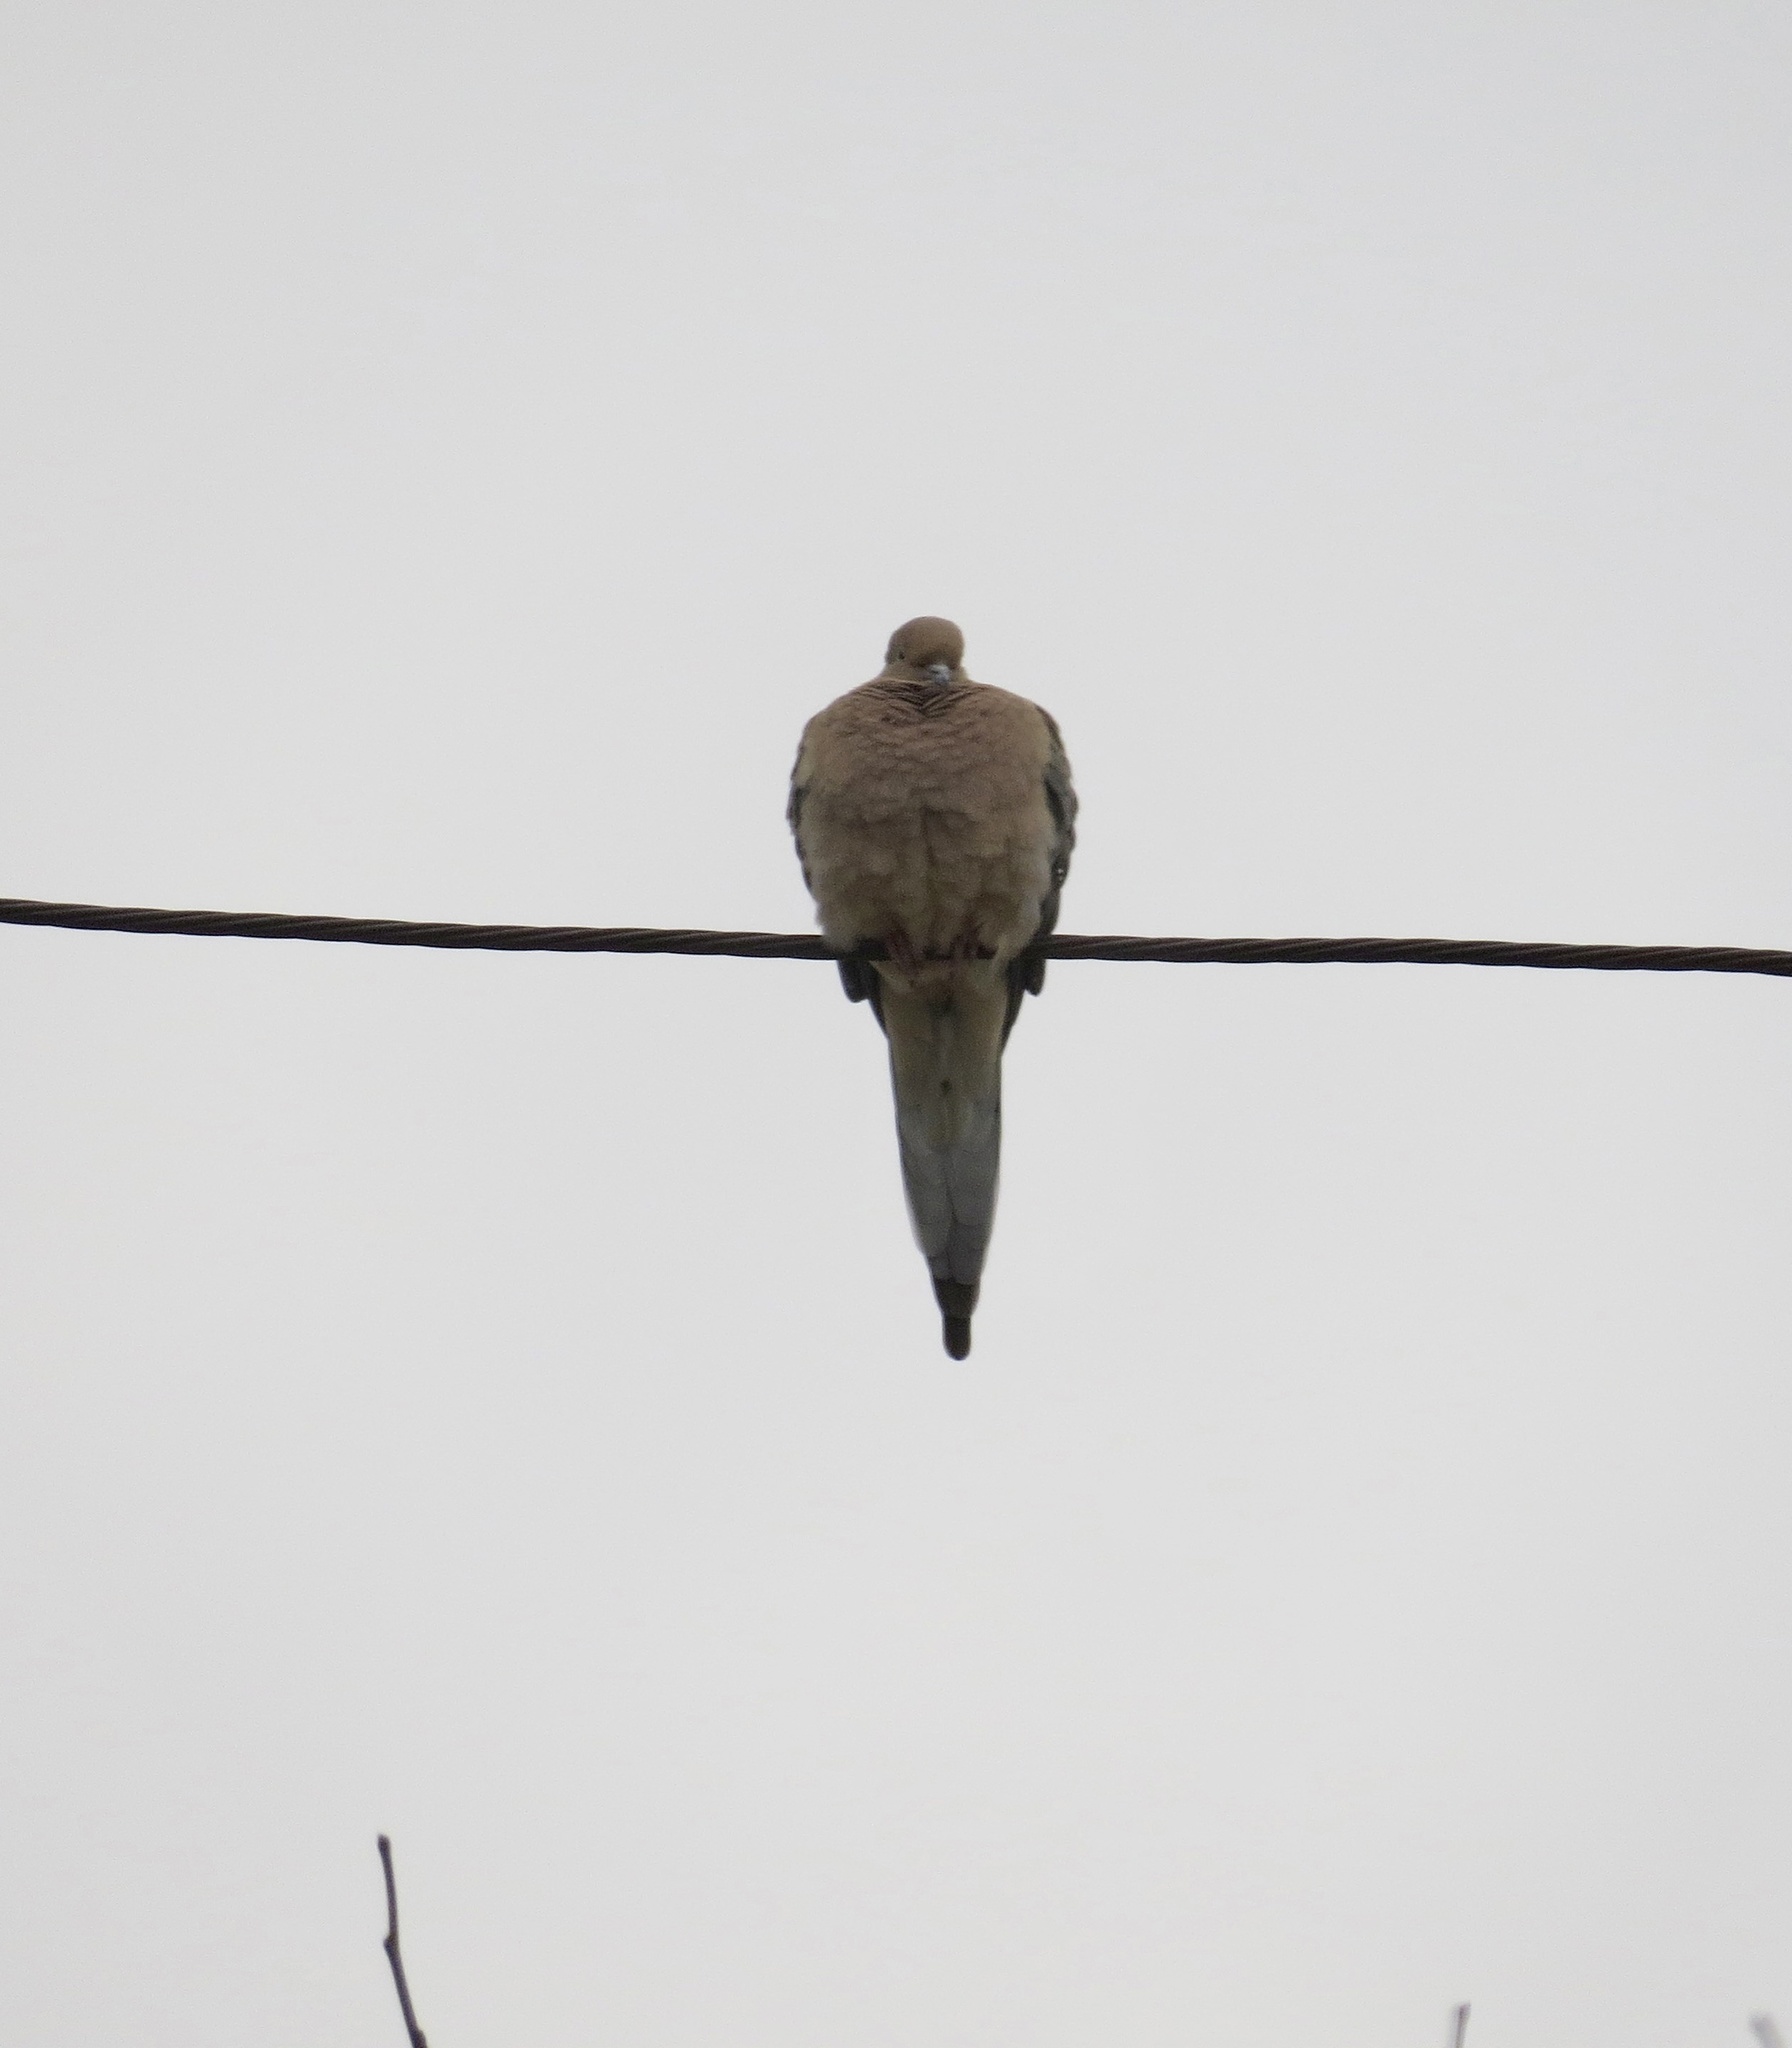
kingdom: Animalia
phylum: Chordata
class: Aves
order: Columbiformes
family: Columbidae
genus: Zenaida
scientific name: Zenaida macroura
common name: Mourning dove
